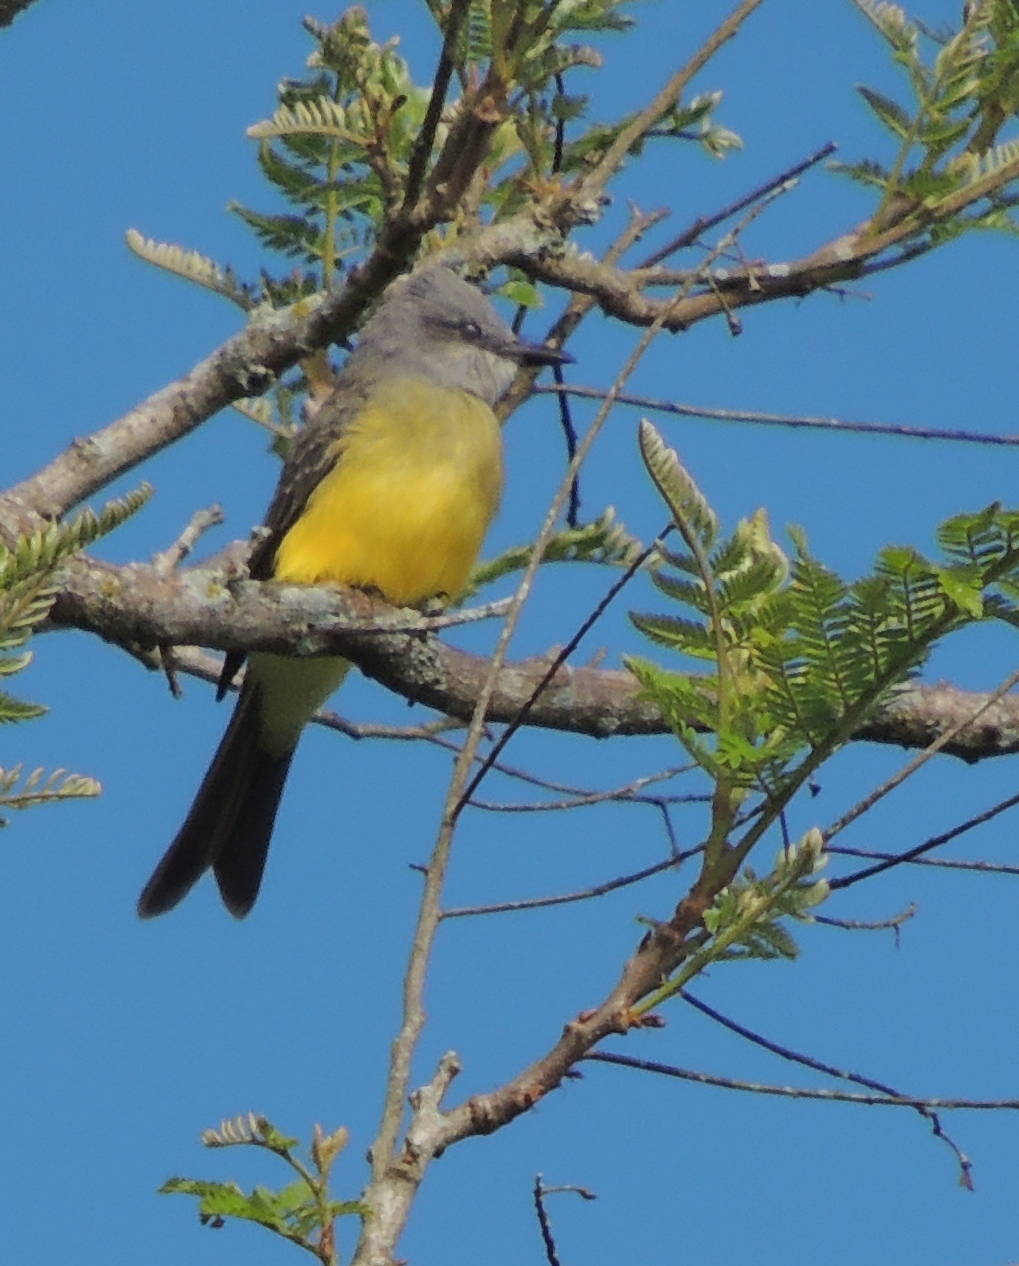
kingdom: Animalia
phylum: Chordata
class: Aves
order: Passeriformes
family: Tyrannidae
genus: Tyrannus
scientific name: Tyrannus melancholicus
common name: Tropical kingbird
